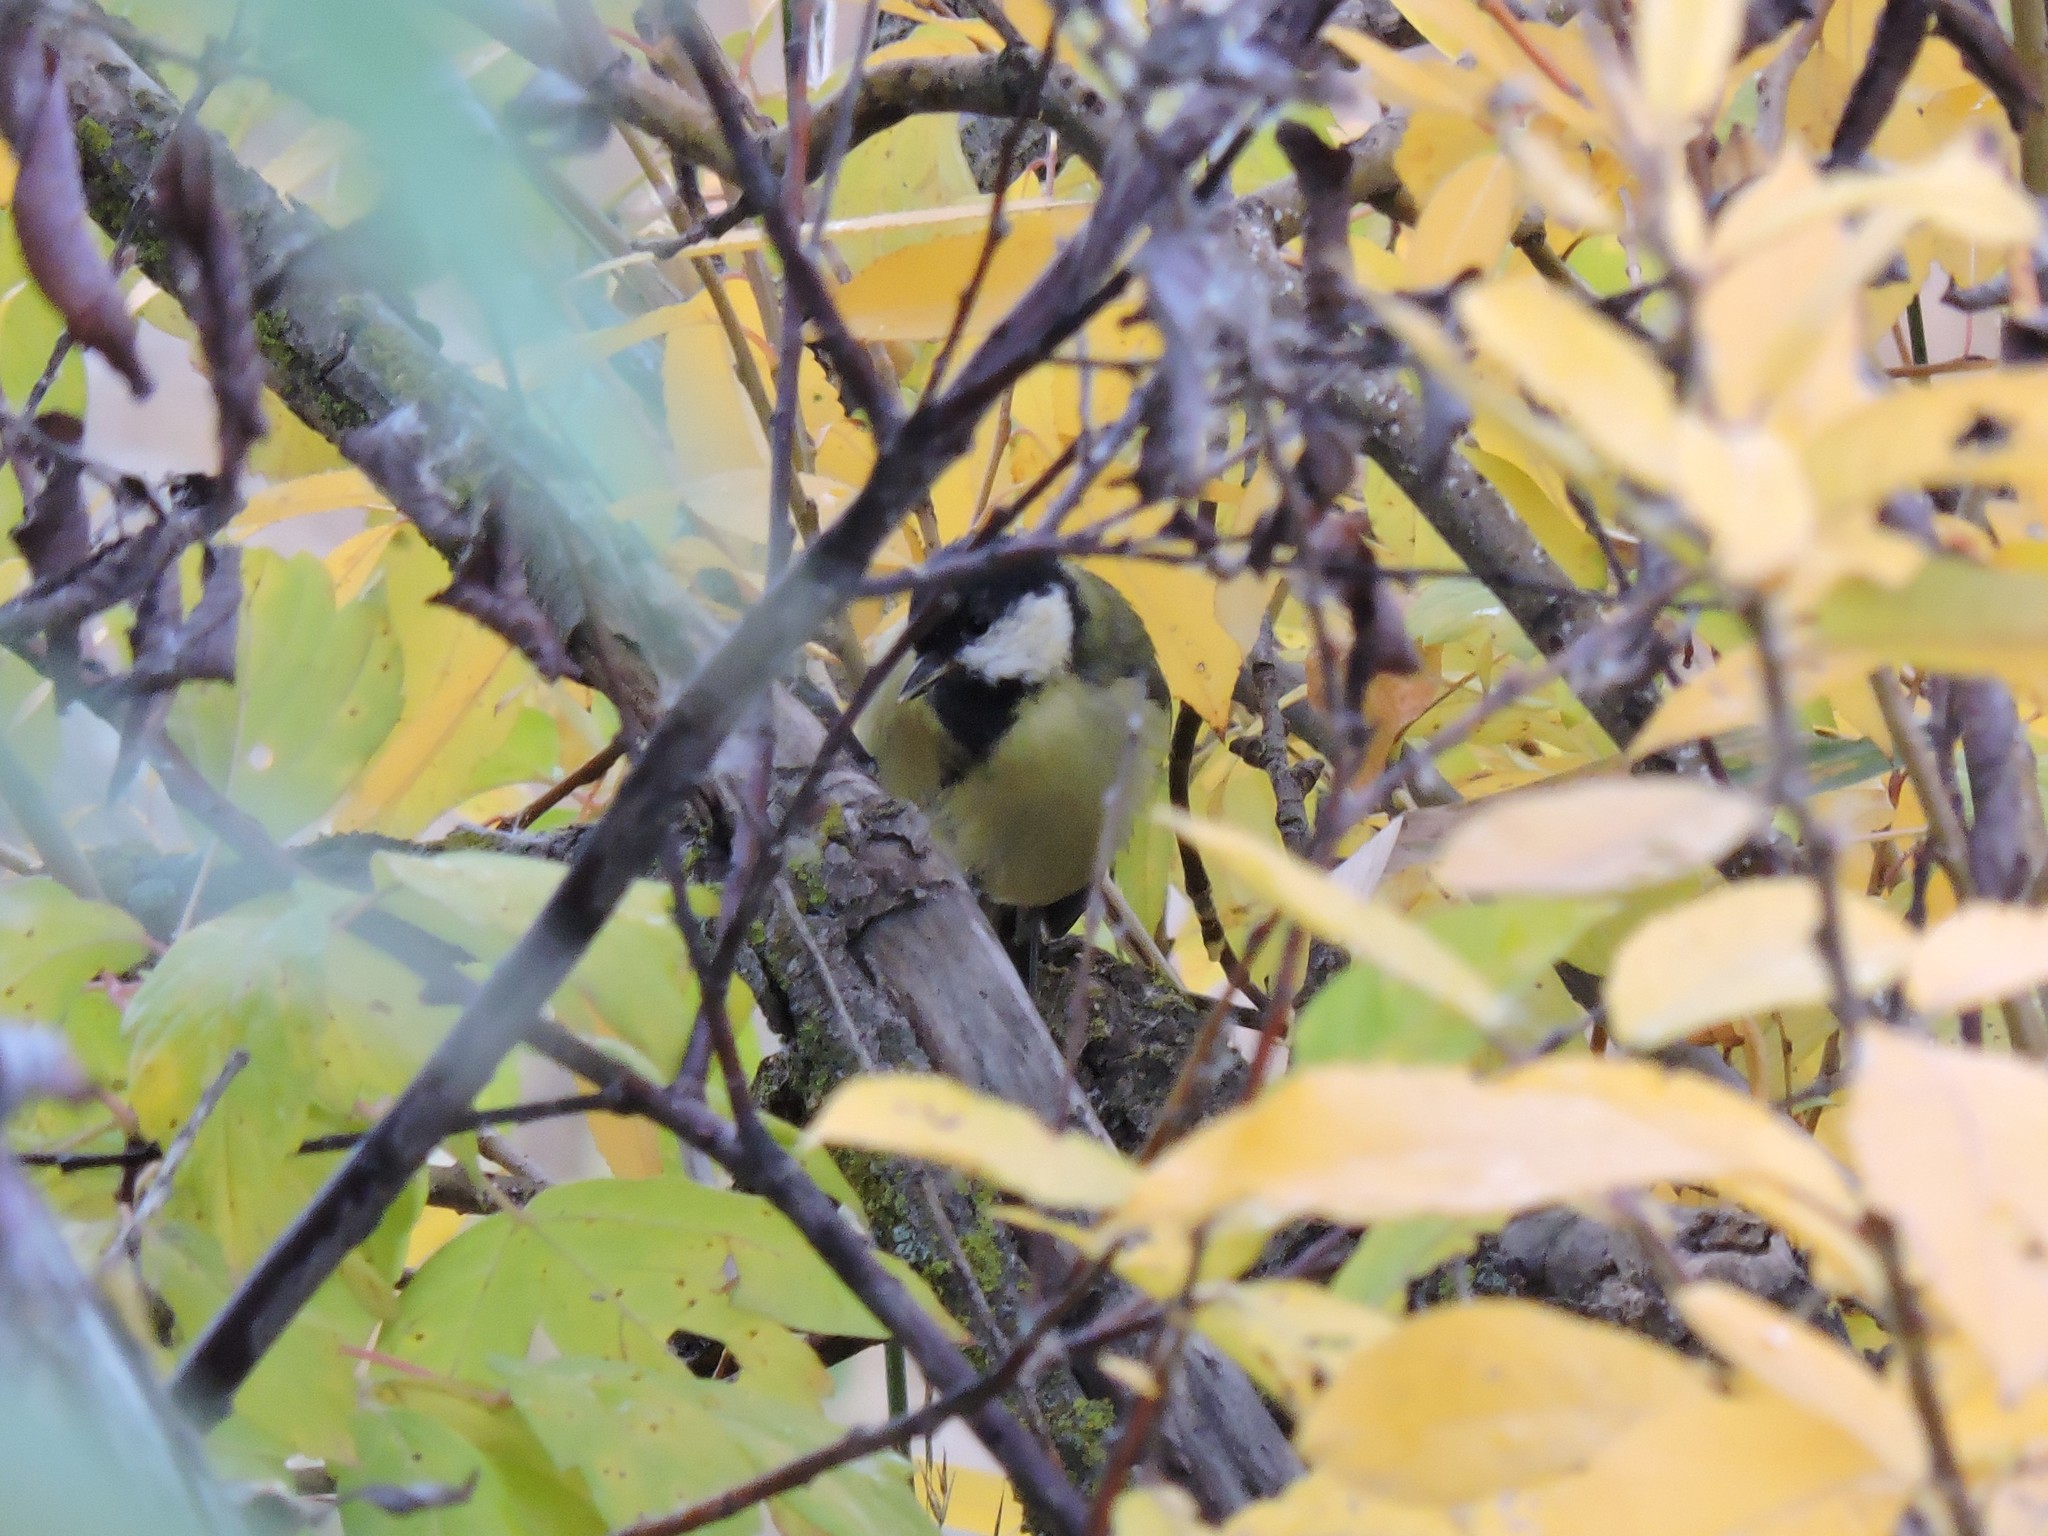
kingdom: Animalia
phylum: Chordata
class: Aves
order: Passeriformes
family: Paridae
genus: Parus
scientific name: Parus major
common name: Great tit
